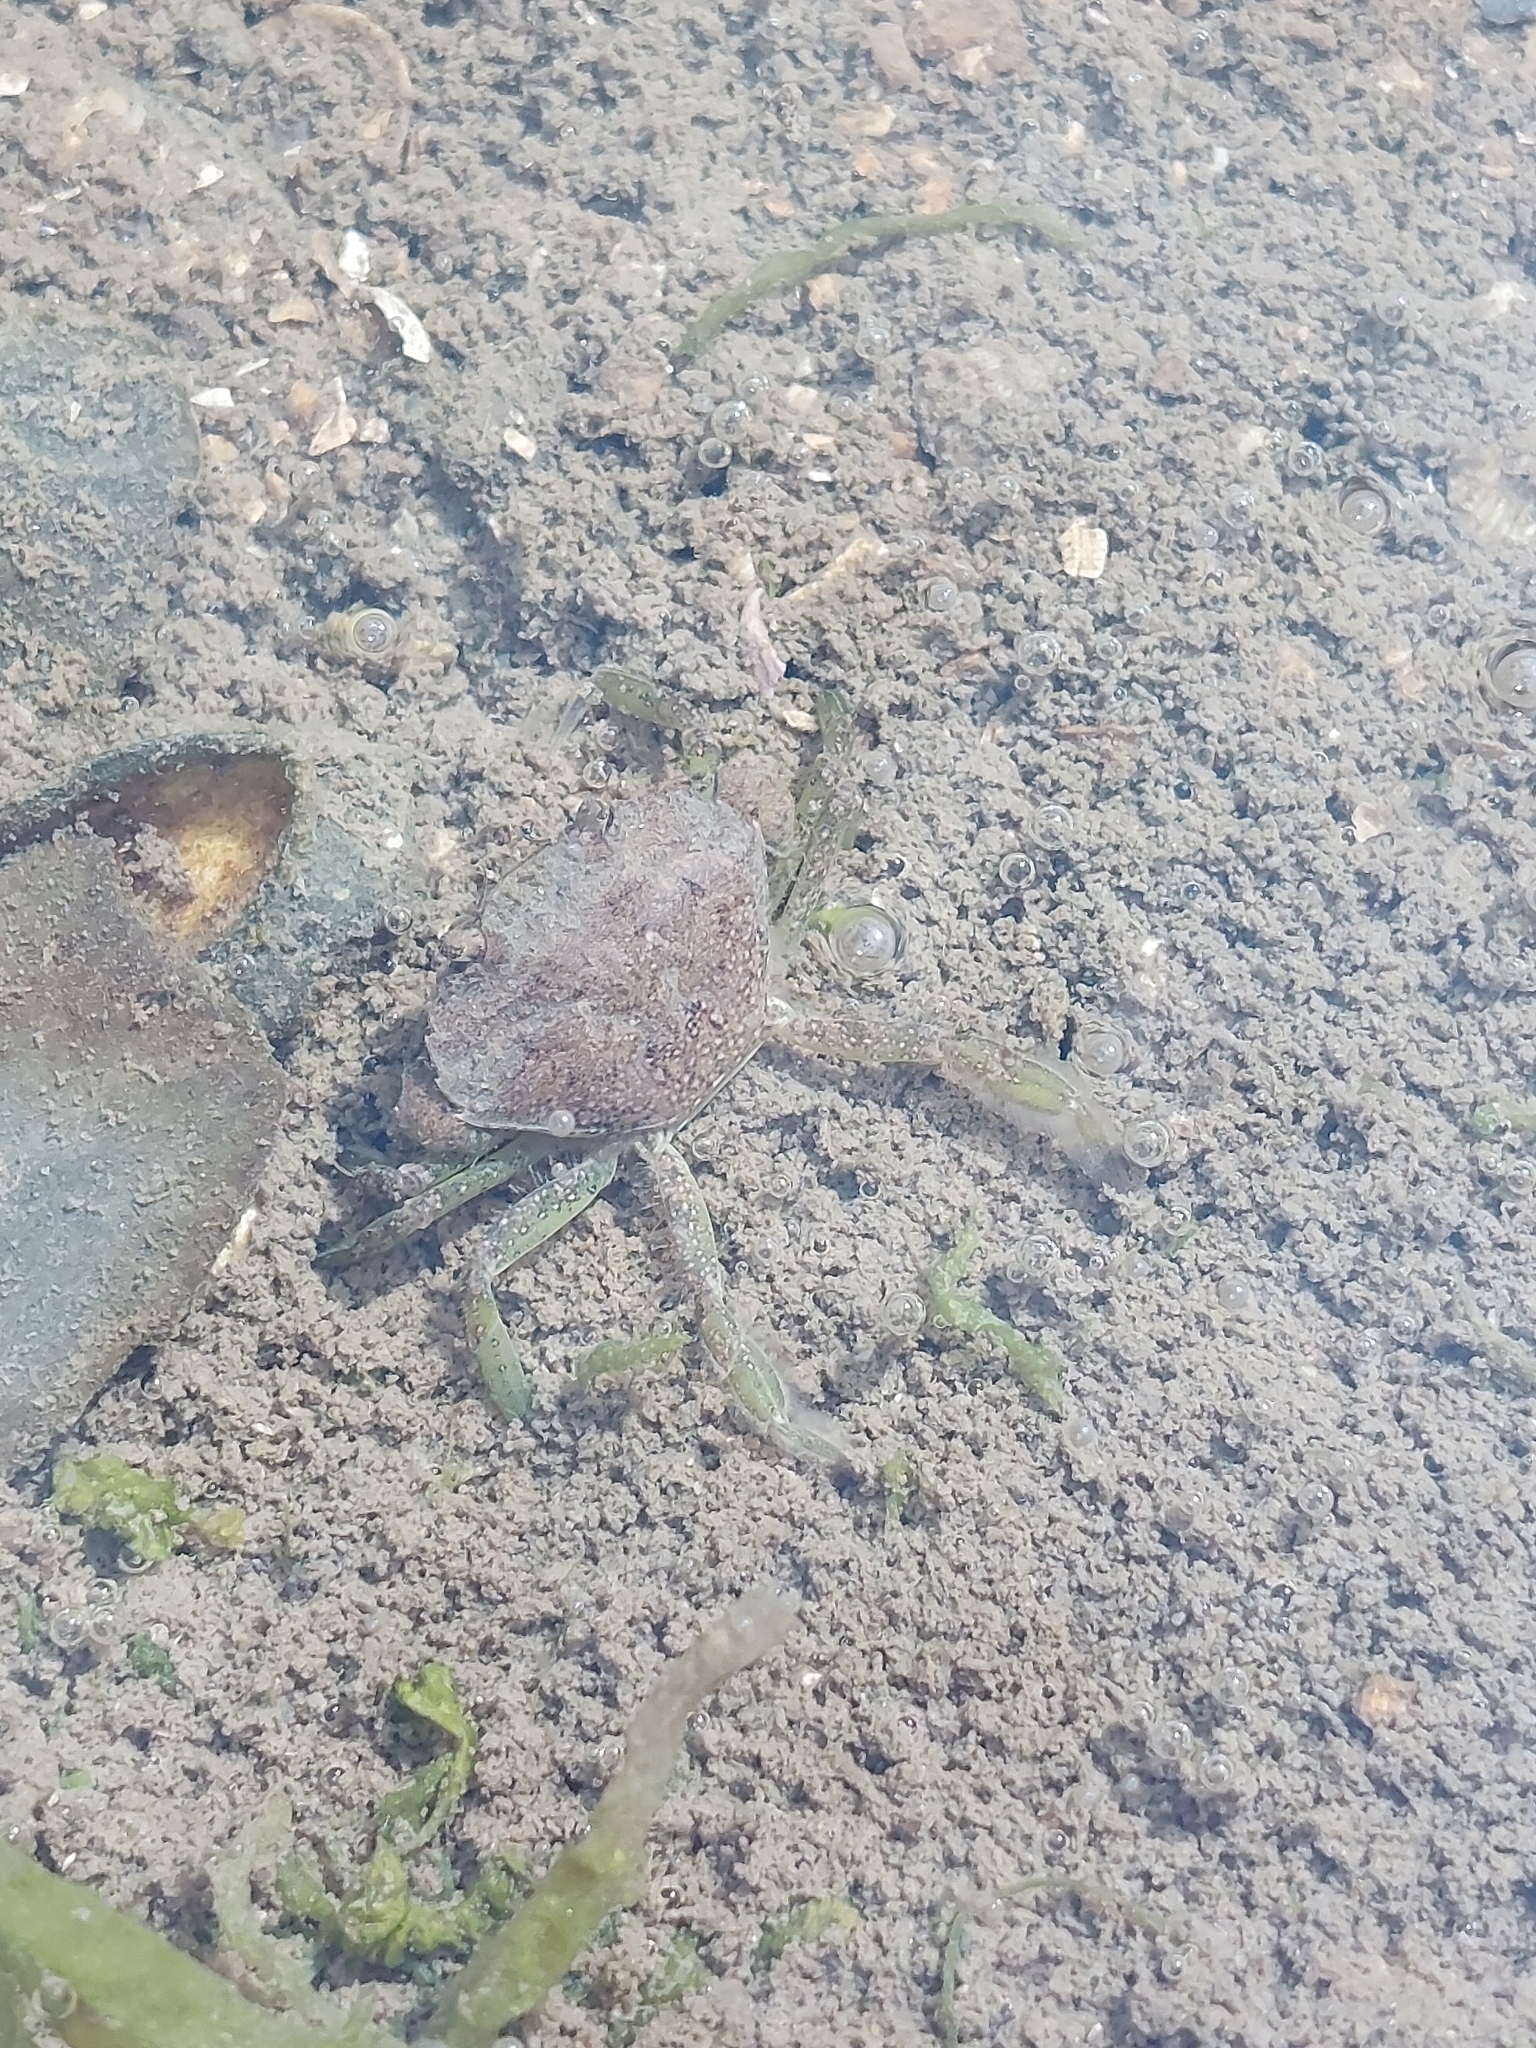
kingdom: Animalia
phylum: Arthropoda
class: Malacostraca
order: Decapoda
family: Carcinidae
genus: Carcinus
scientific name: Carcinus maenas
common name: European green crab
